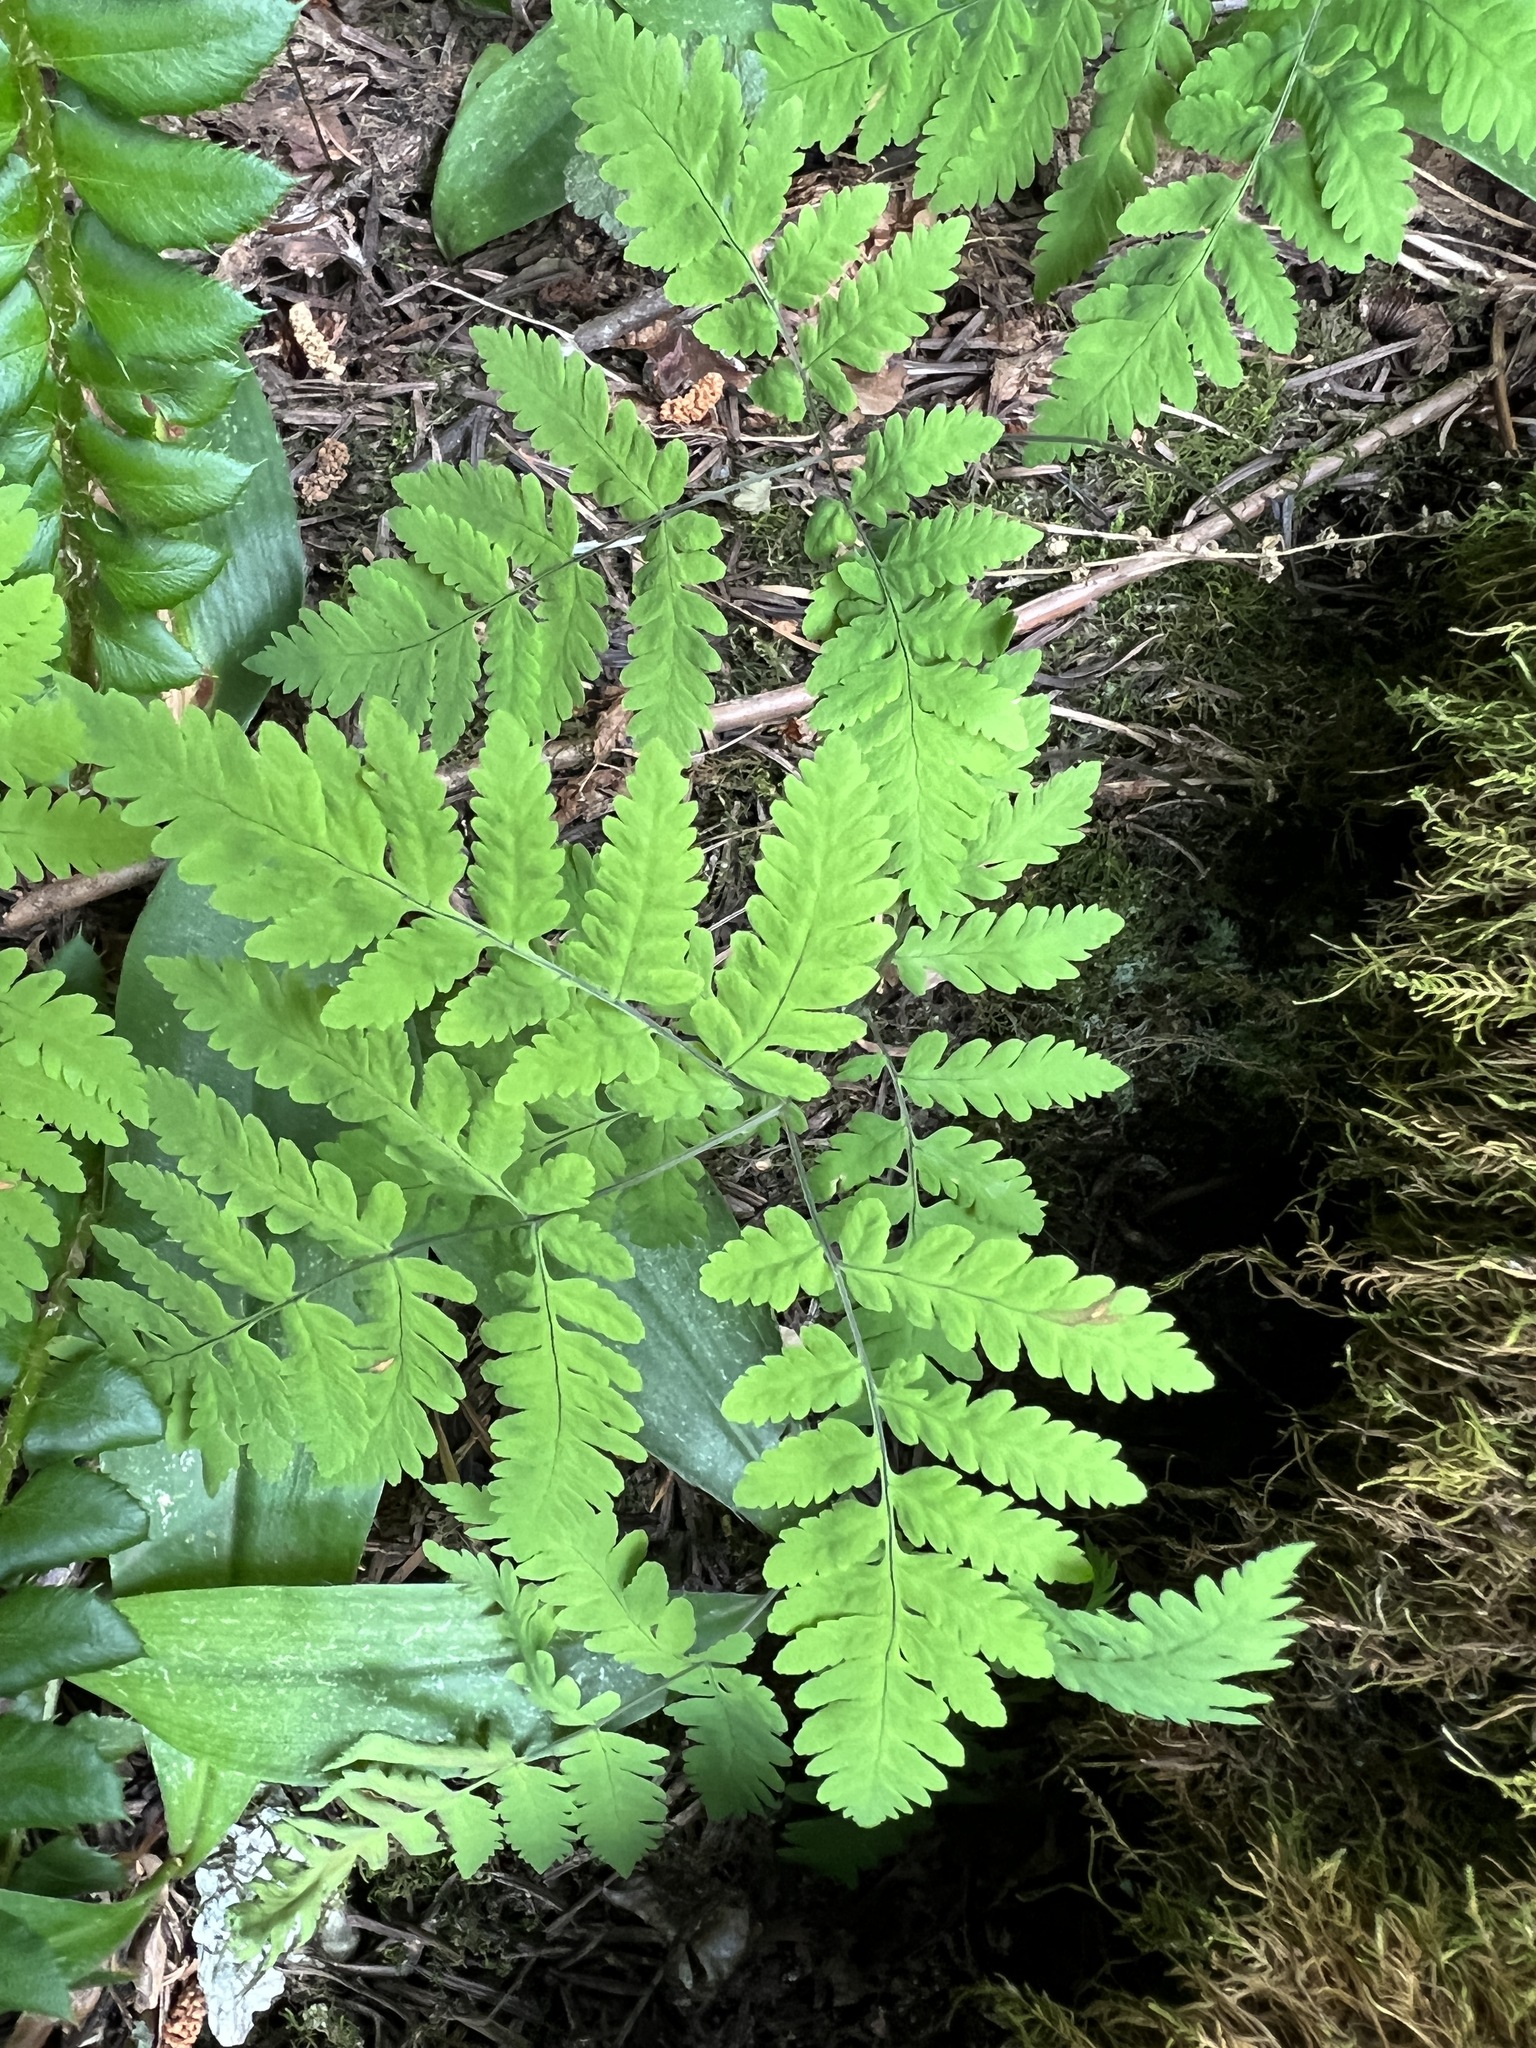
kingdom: Plantae
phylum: Tracheophyta
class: Polypodiopsida
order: Polypodiales
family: Cystopteridaceae
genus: Gymnocarpium
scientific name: Gymnocarpium disjunctum
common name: Western oak fern
